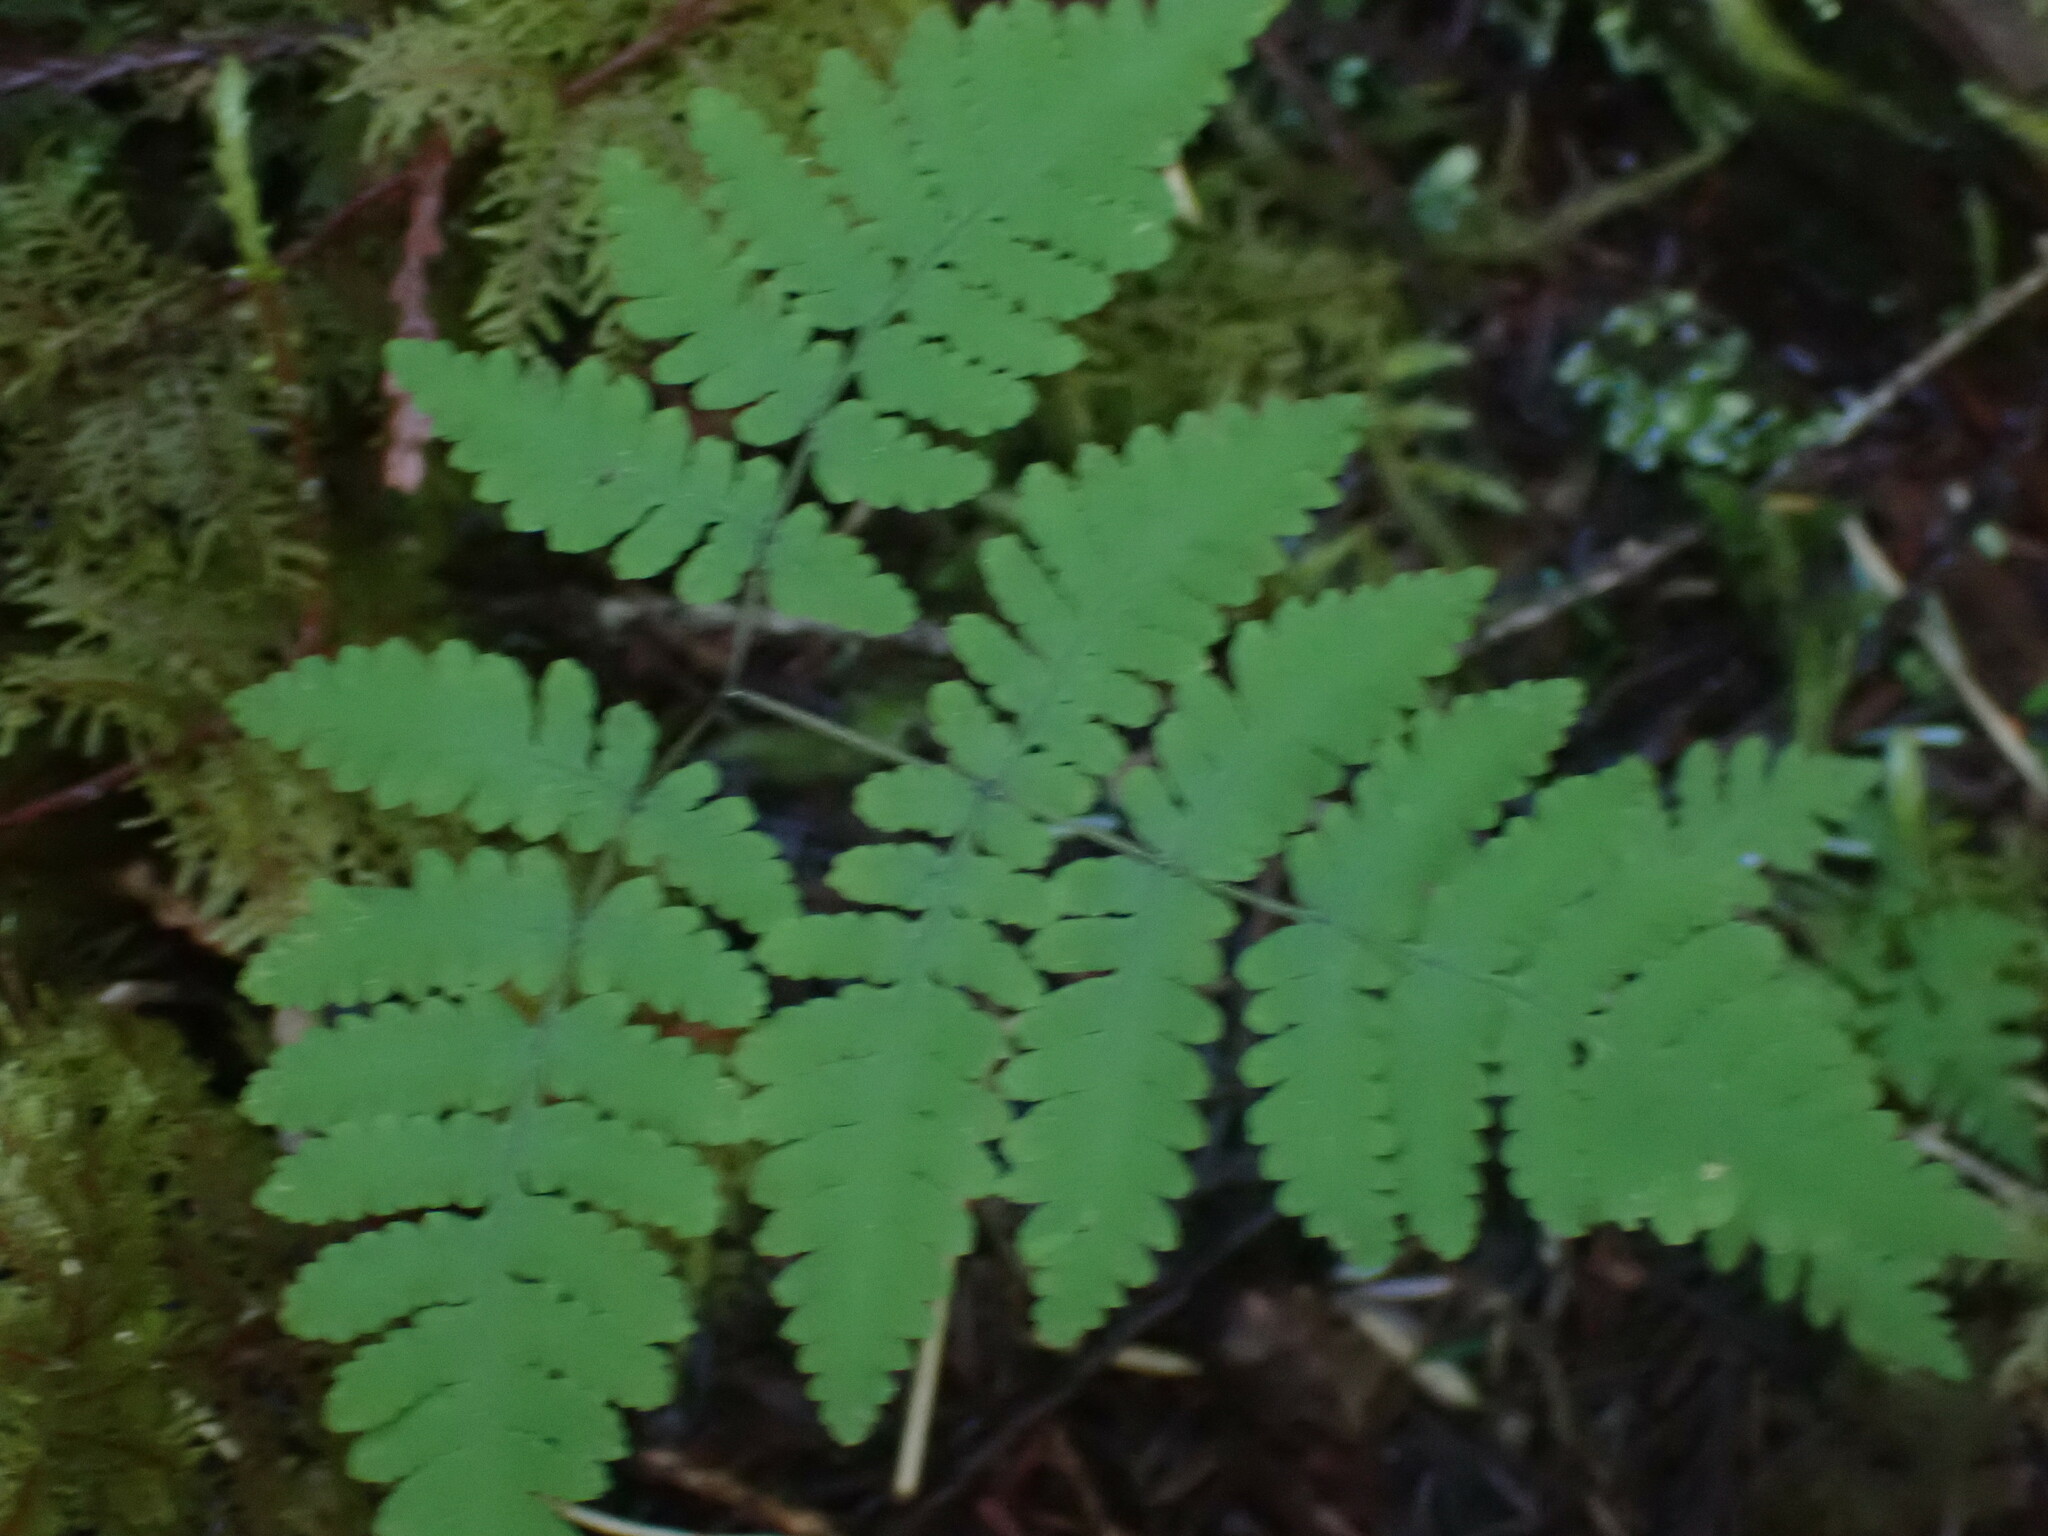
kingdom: Plantae
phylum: Tracheophyta
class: Polypodiopsida
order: Polypodiales
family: Cystopteridaceae
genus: Gymnocarpium
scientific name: Gymnocarpium disjunctum
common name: Western oak fern
